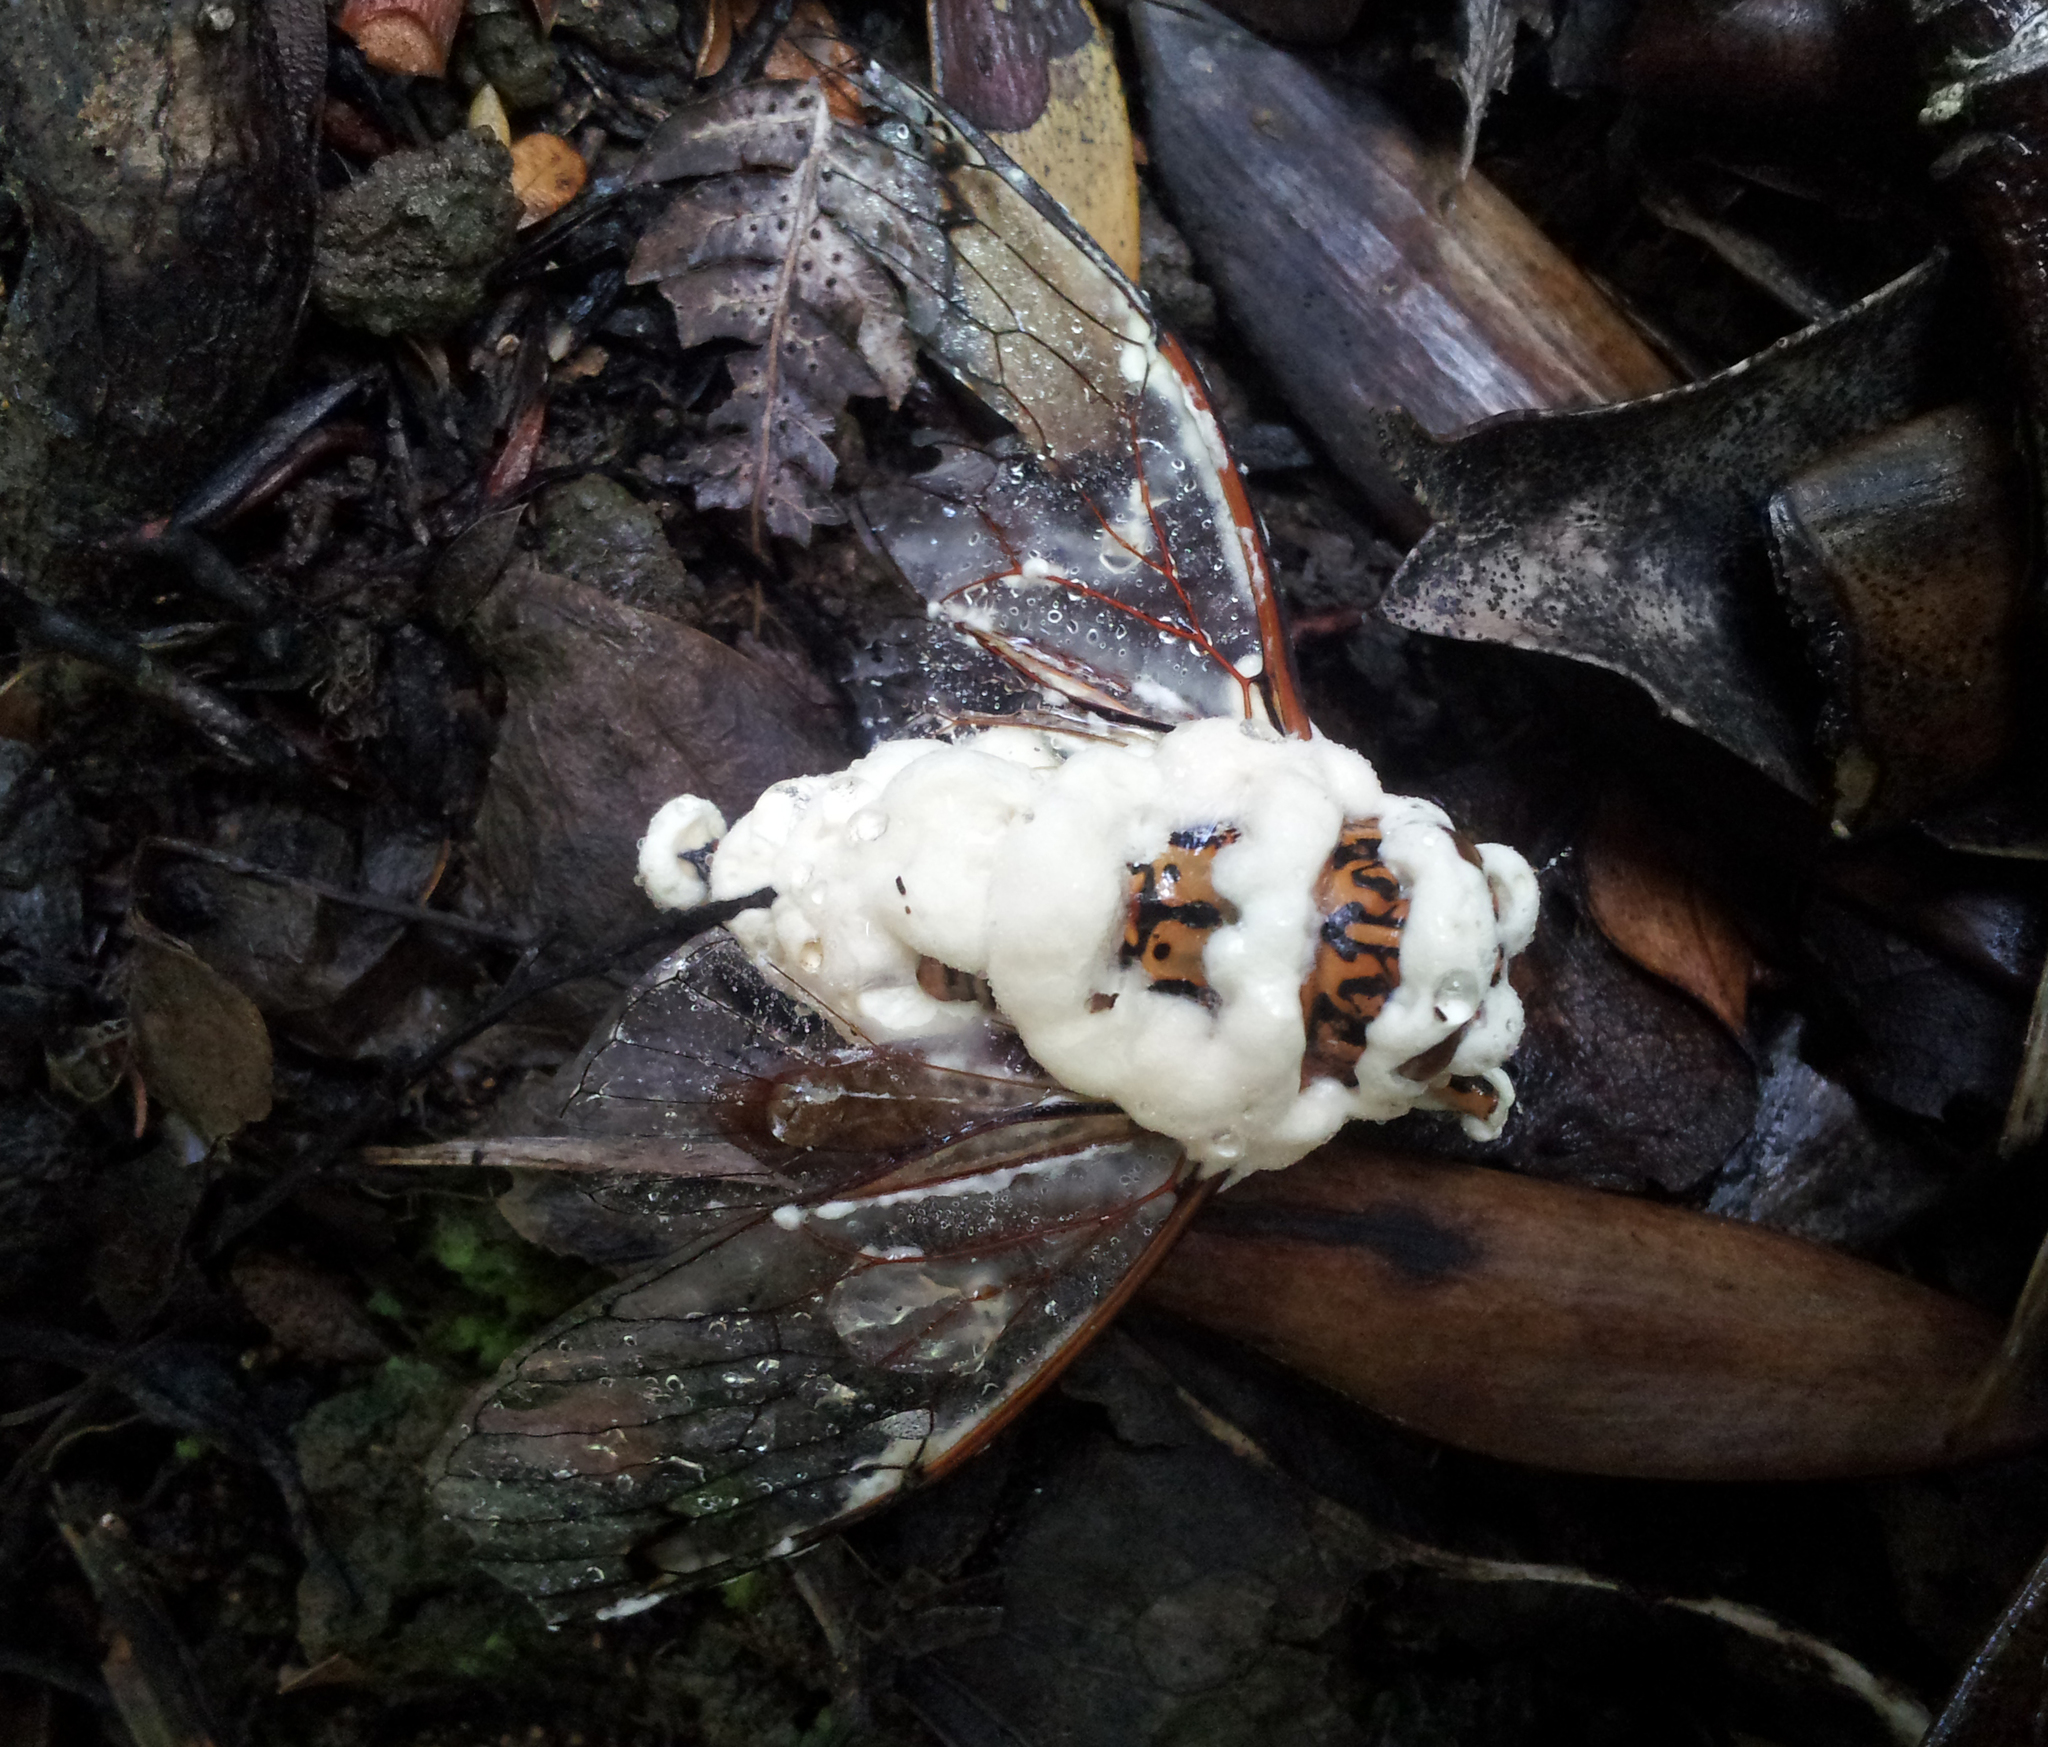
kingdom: Fungi
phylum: Ascomycota
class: Sordariomycetes
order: Hypocreales
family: Cordycipitaceae
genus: Beauveria
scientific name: Beauveria bassiana
